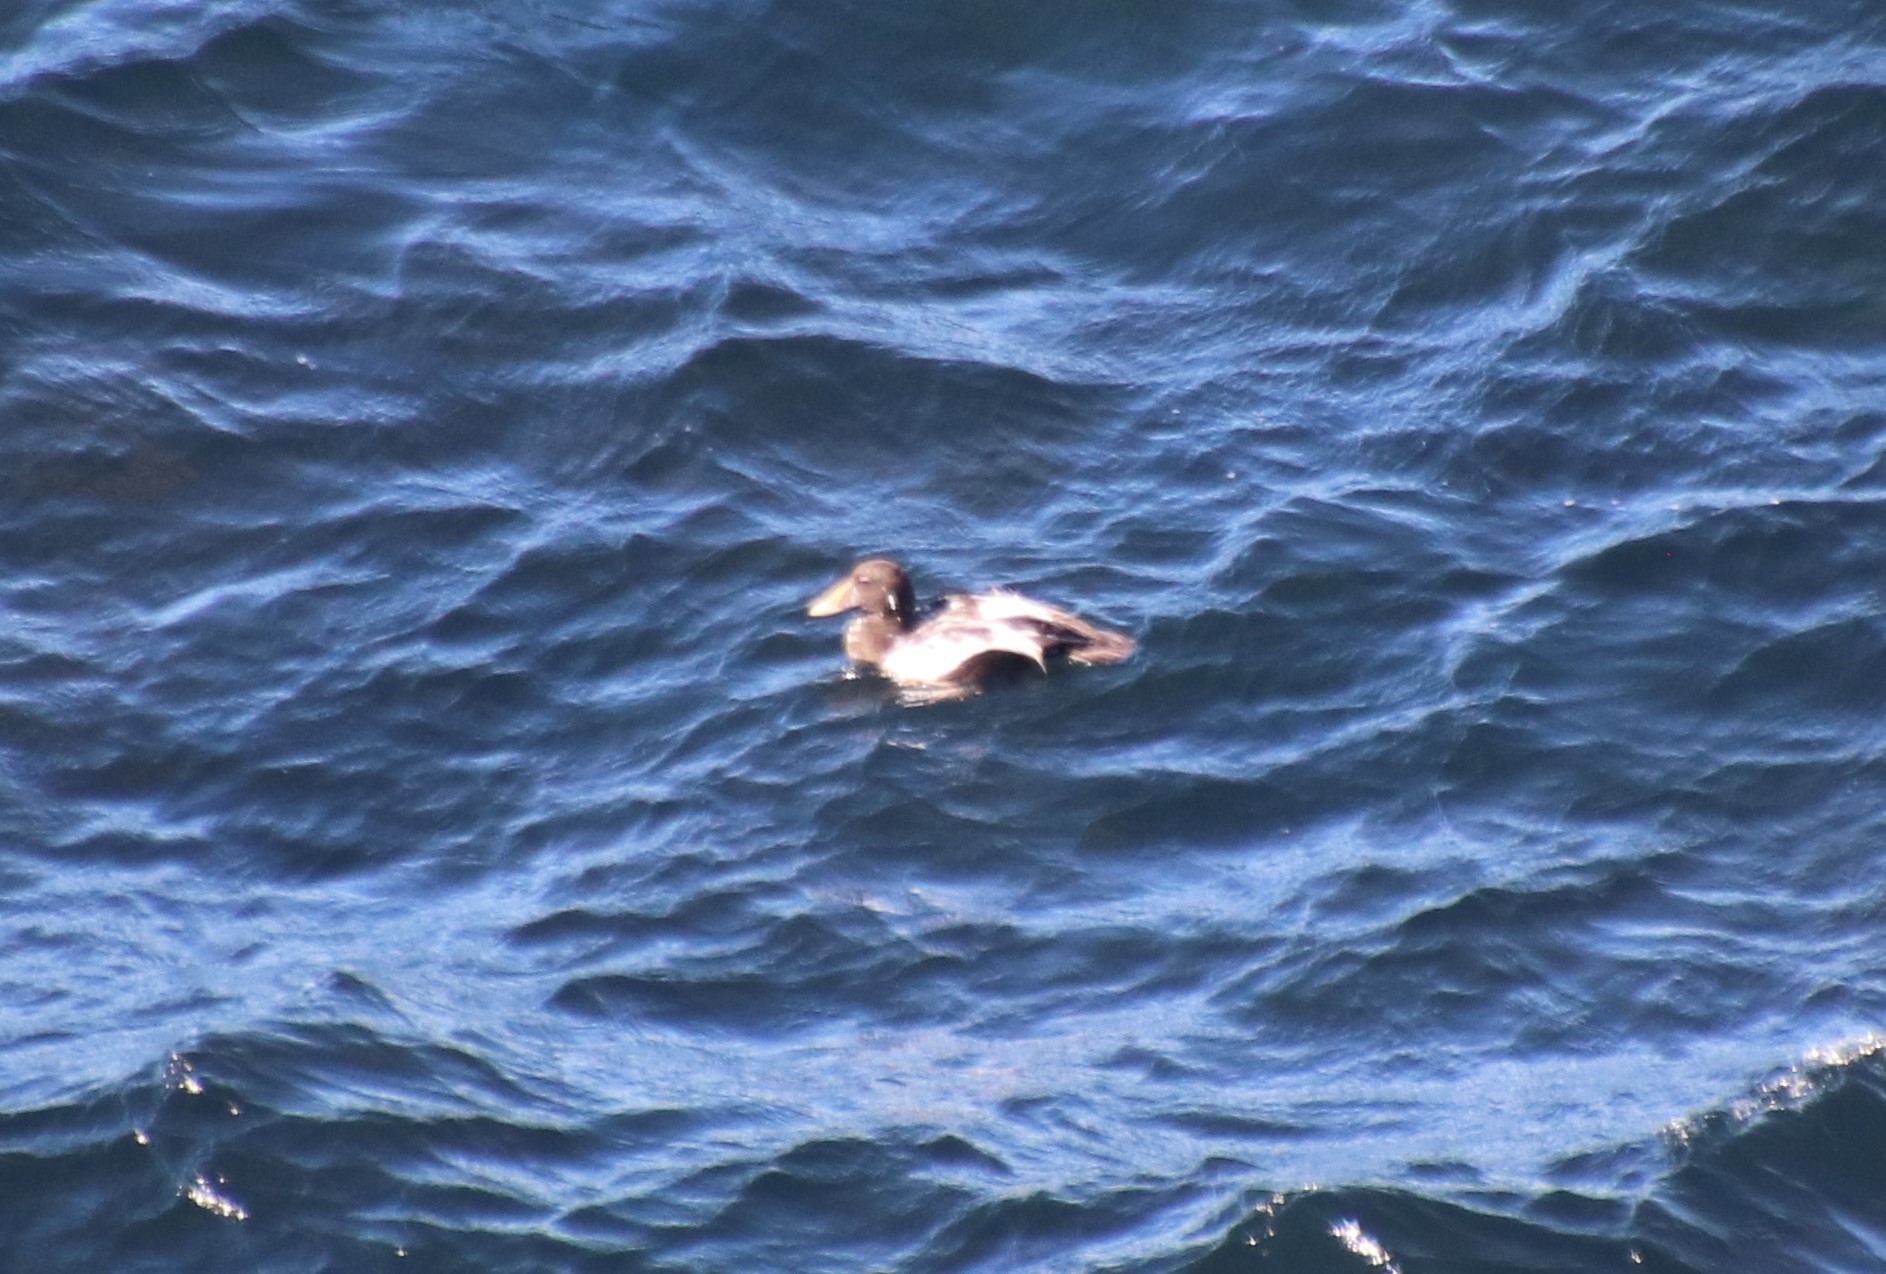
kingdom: Animalia
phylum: Chordata
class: Aves
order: Anseriformes
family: Anatidae
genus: Somateria
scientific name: Somateria mollissima
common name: Common eider
